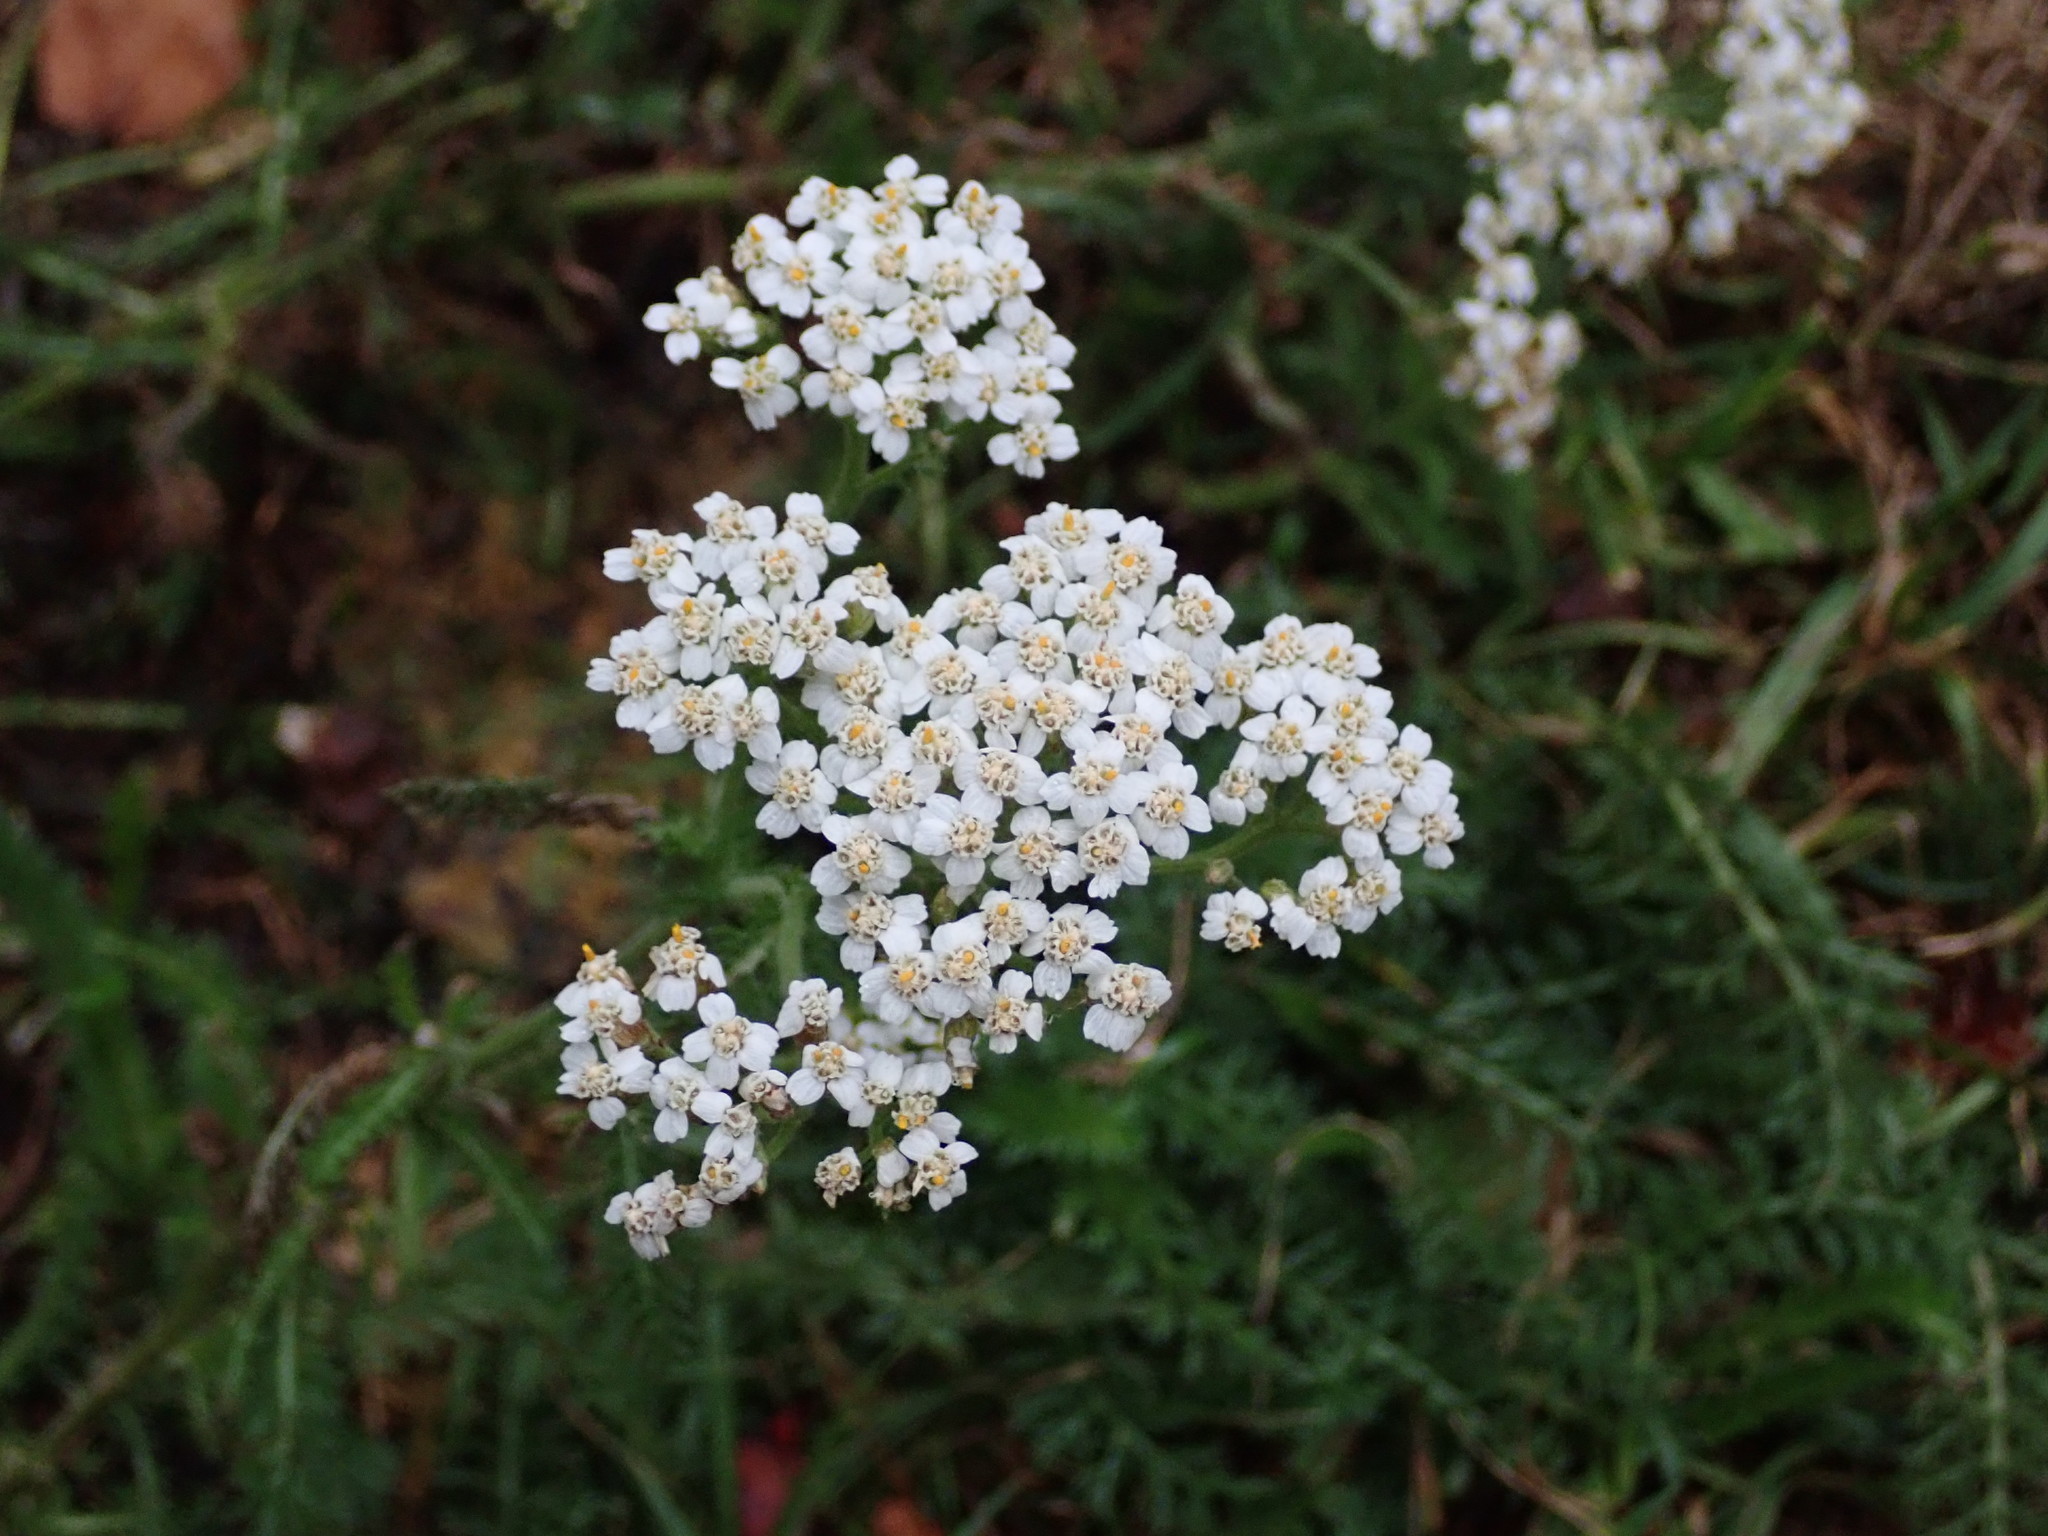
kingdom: Plantae
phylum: Tracheophyta
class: Magnoliopsida
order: Asterales
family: Asteraceae
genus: Achillea
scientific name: Achillea millefolium
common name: Yarrow
